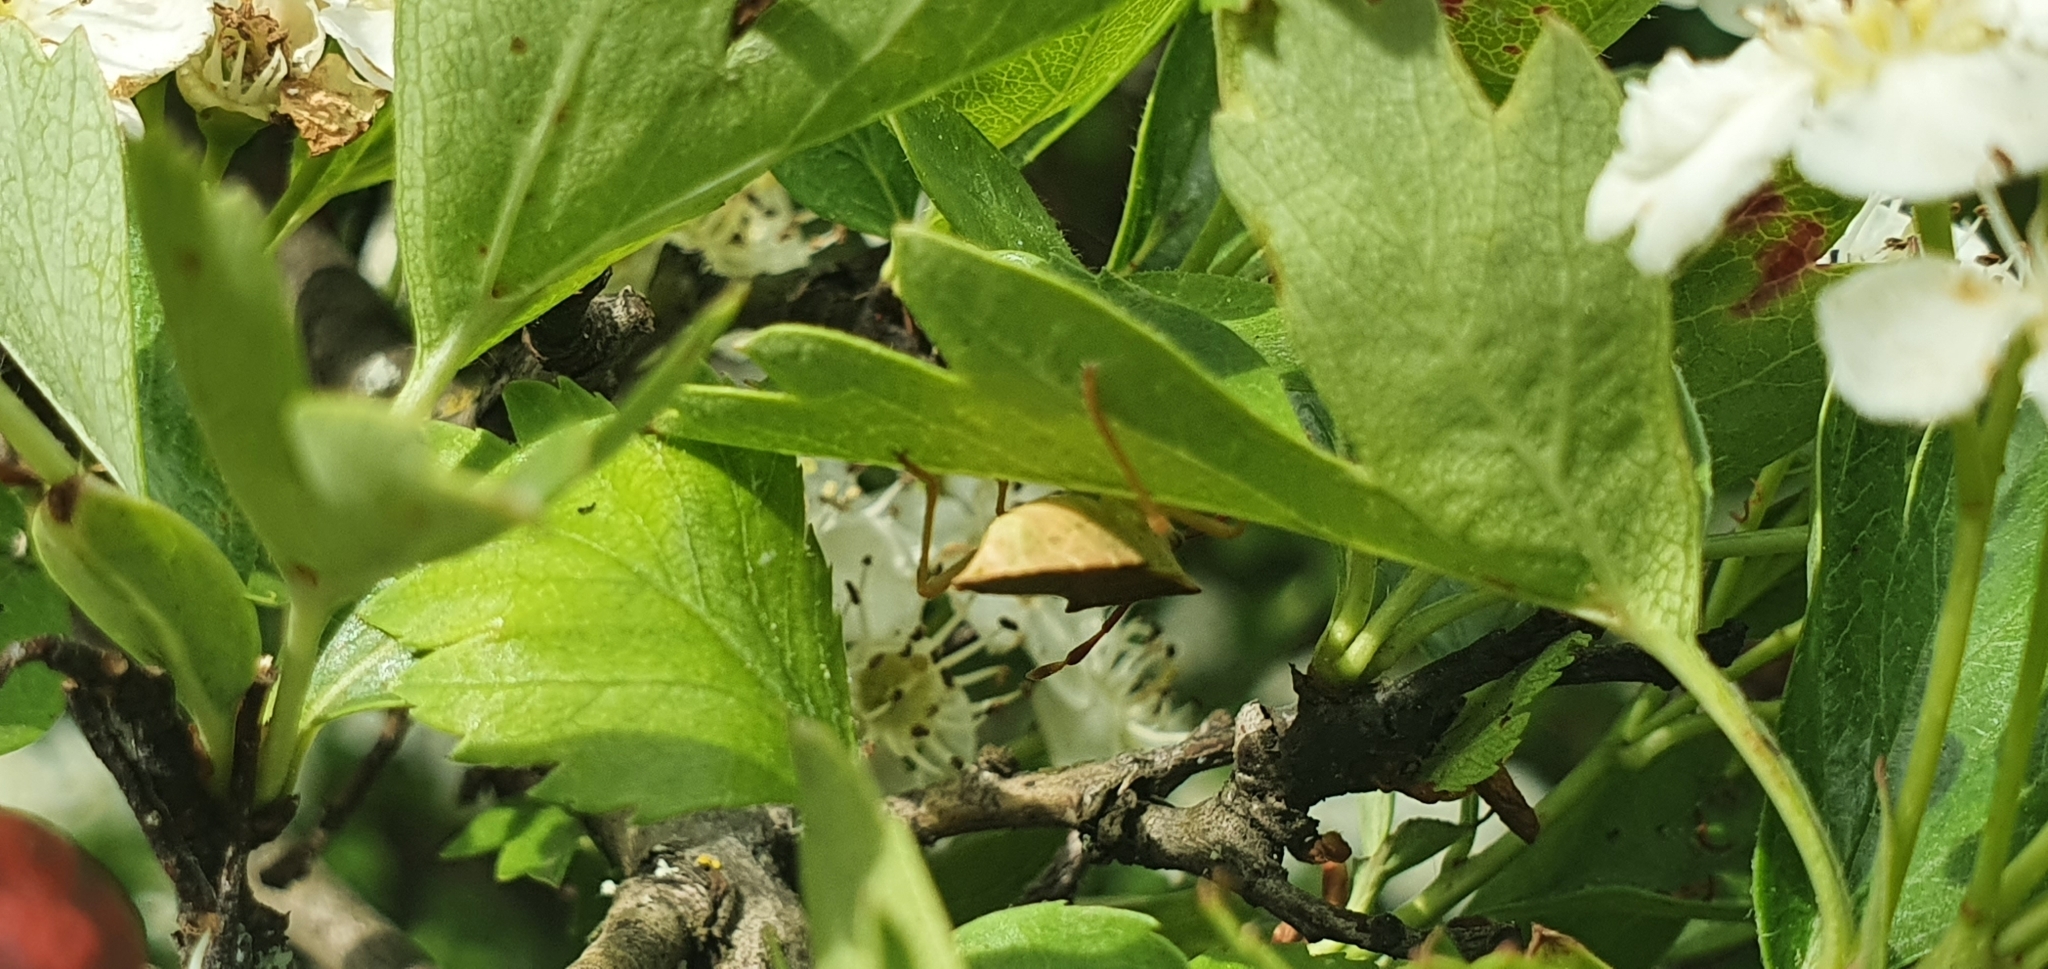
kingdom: Animalia
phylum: Arthropoda
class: Insecta
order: Hemiptera
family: Coreidae
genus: Gonocerus
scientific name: Gonocerus acuteangulatus
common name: Box bug
